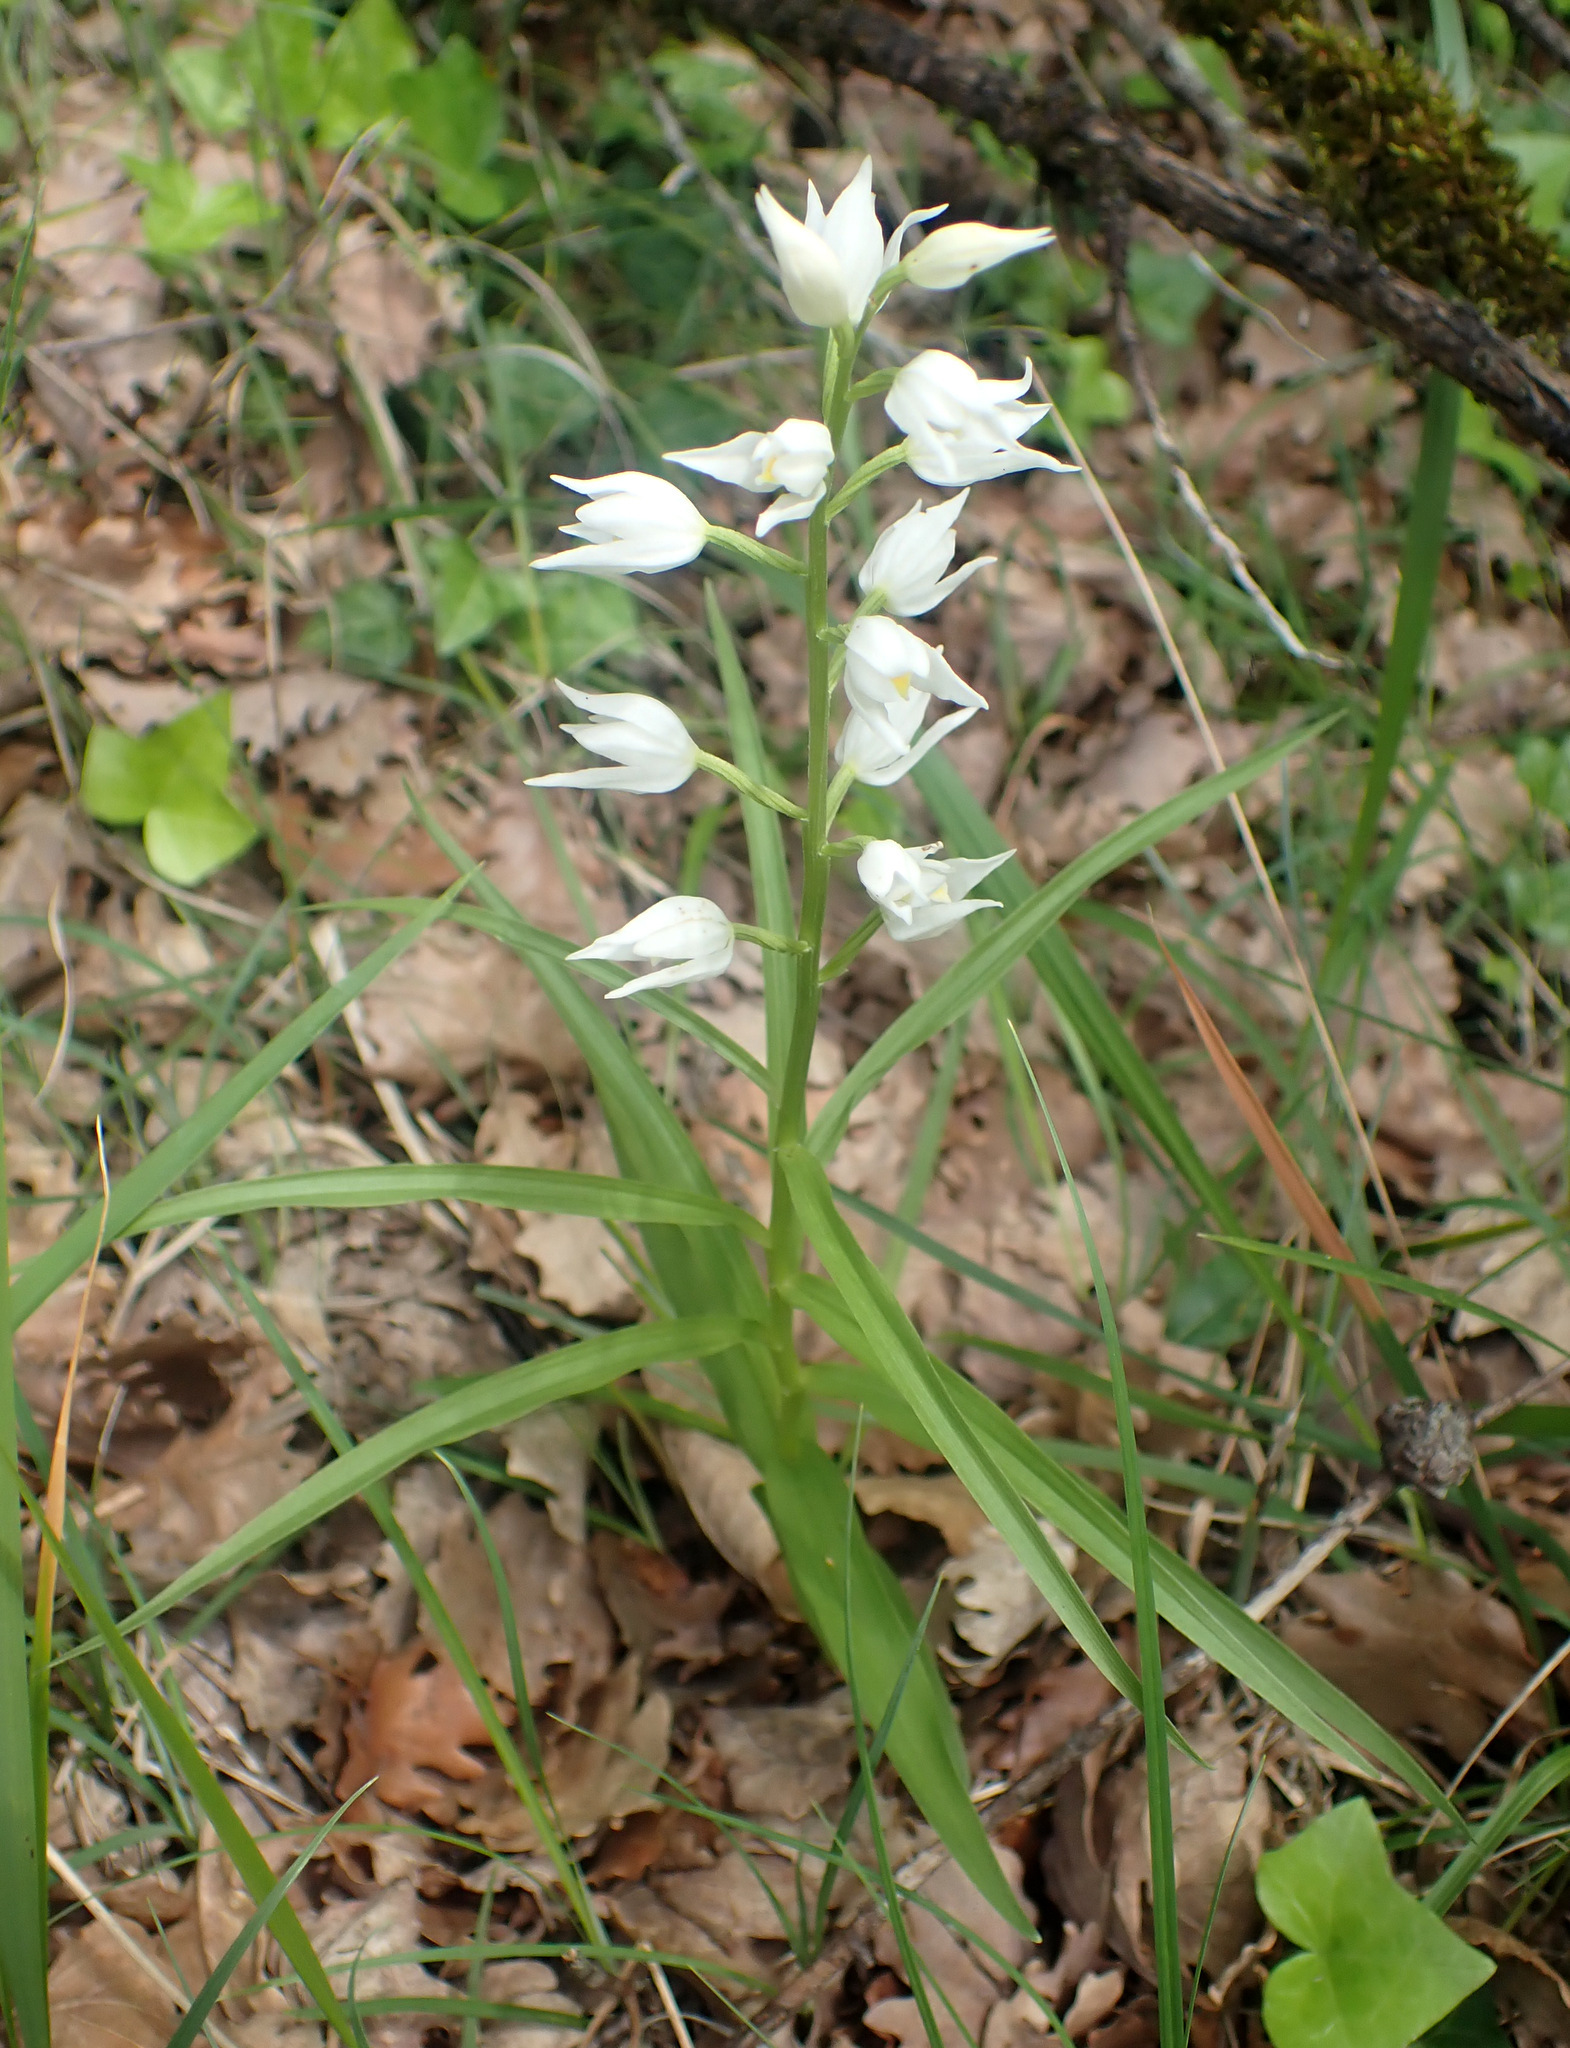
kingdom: Plantae
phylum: Tracheophyta
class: Liliopsida
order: Asparagales
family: Orchidaceae
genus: Cephalanthera
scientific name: Cephalanthera longifolia
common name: Narrow-leaved helleborine
